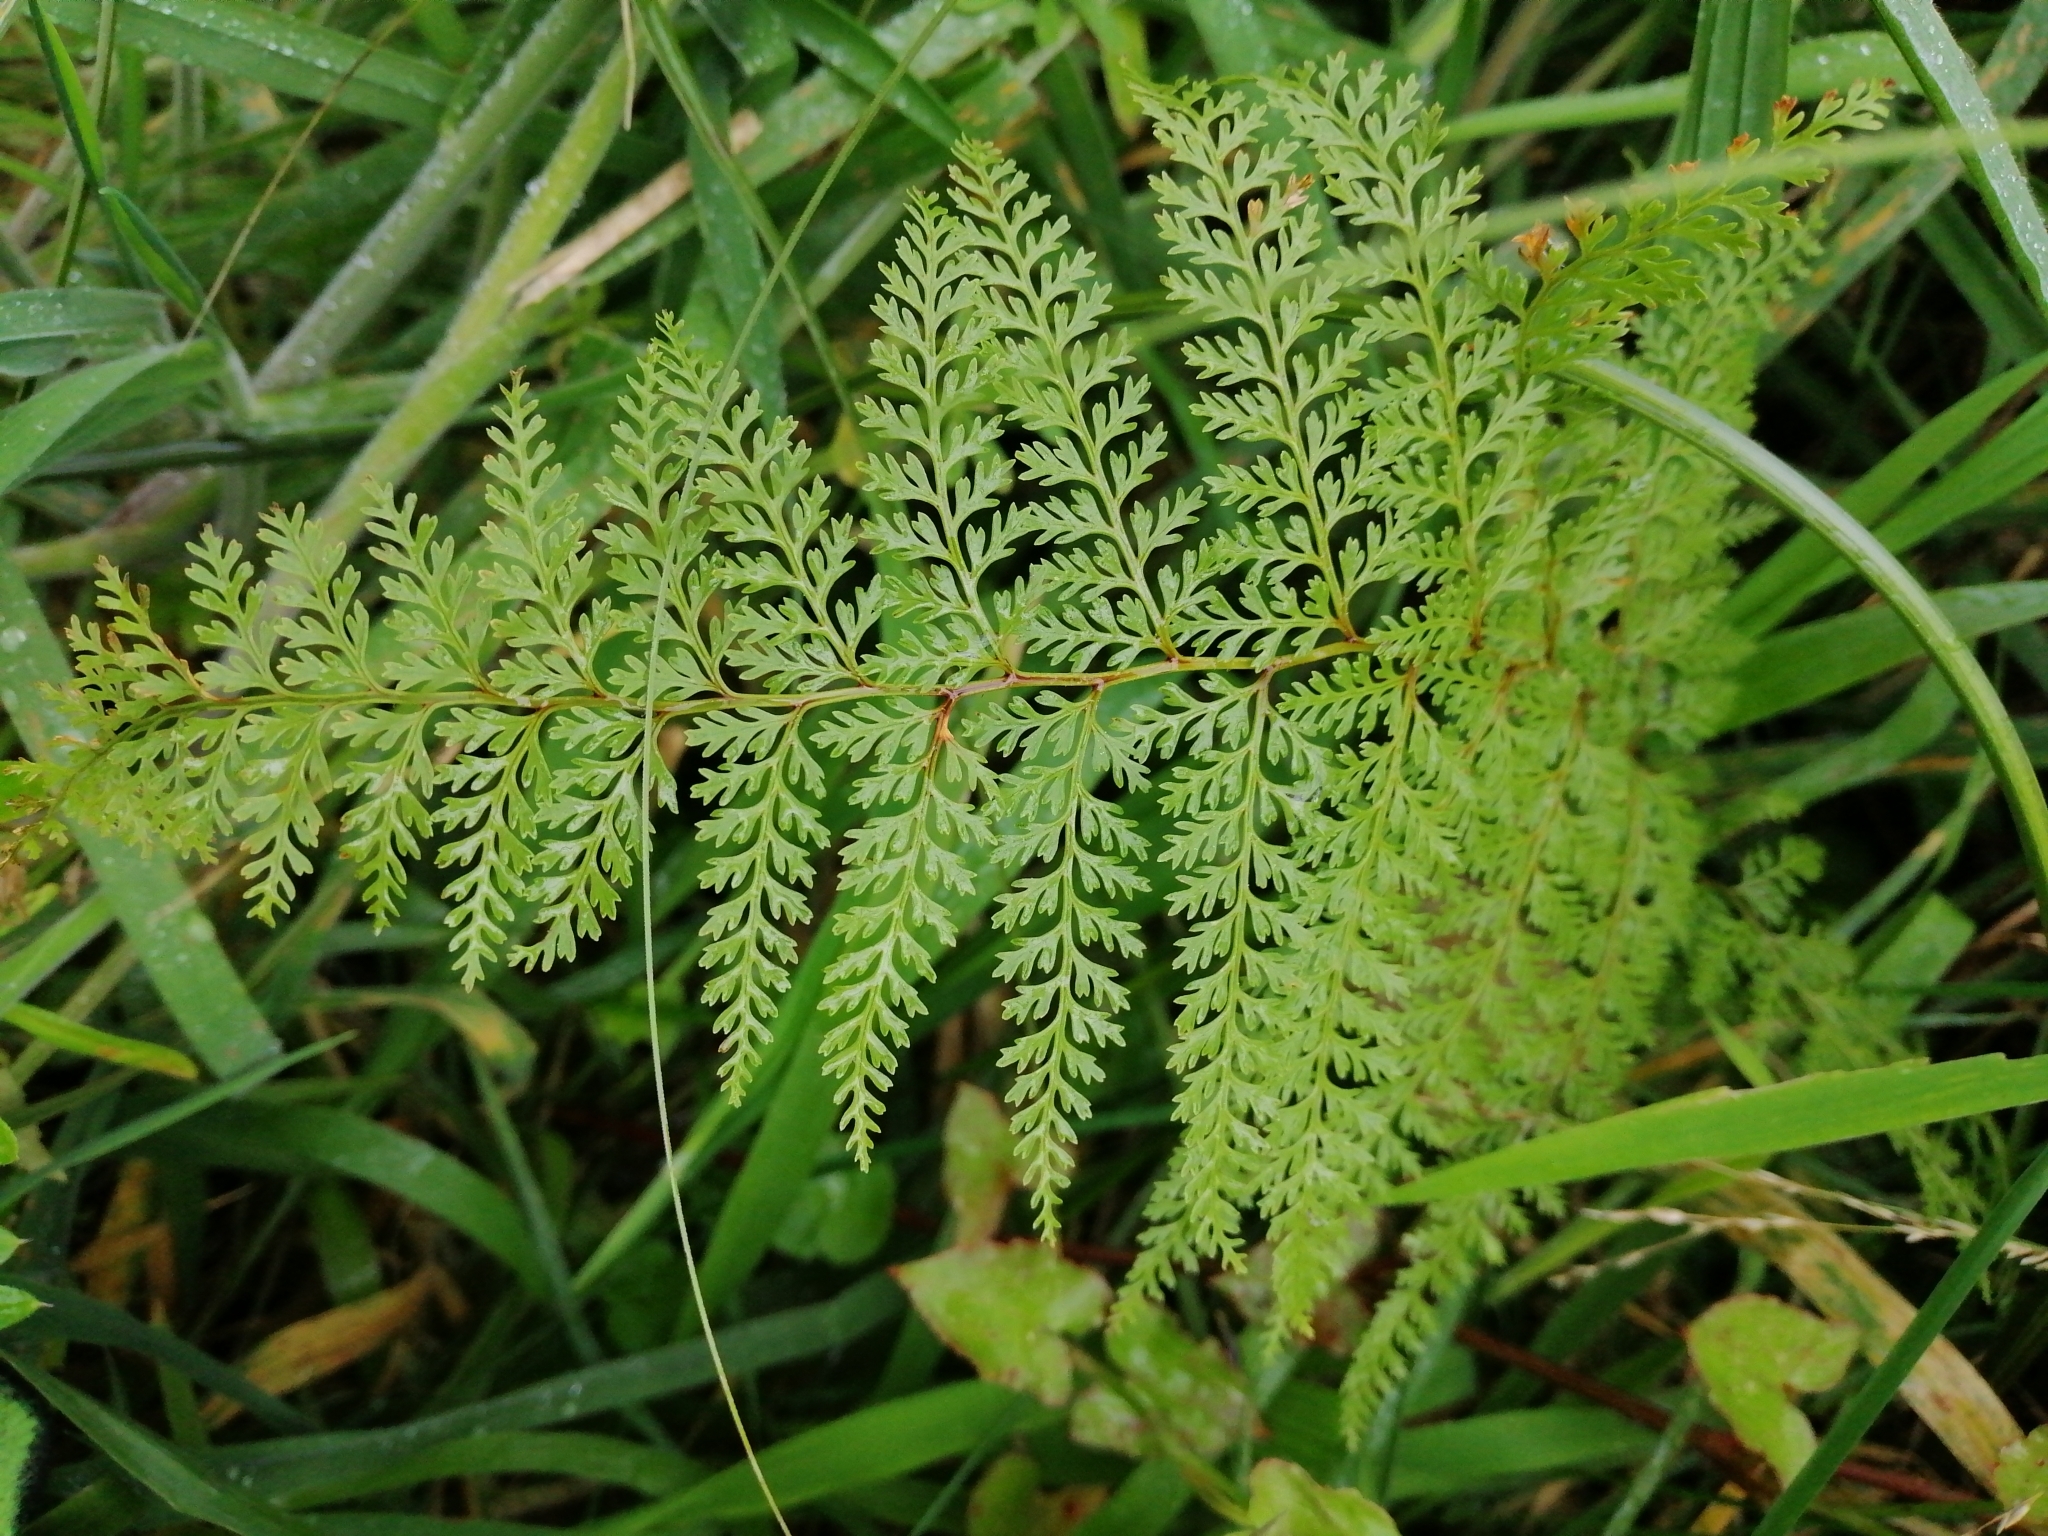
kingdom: Plantae
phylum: Tracheophyta
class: Polypodiopsida
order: Polypodiales
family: Dennstaedtiaceae
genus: Paesia
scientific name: Paesia scaberula
